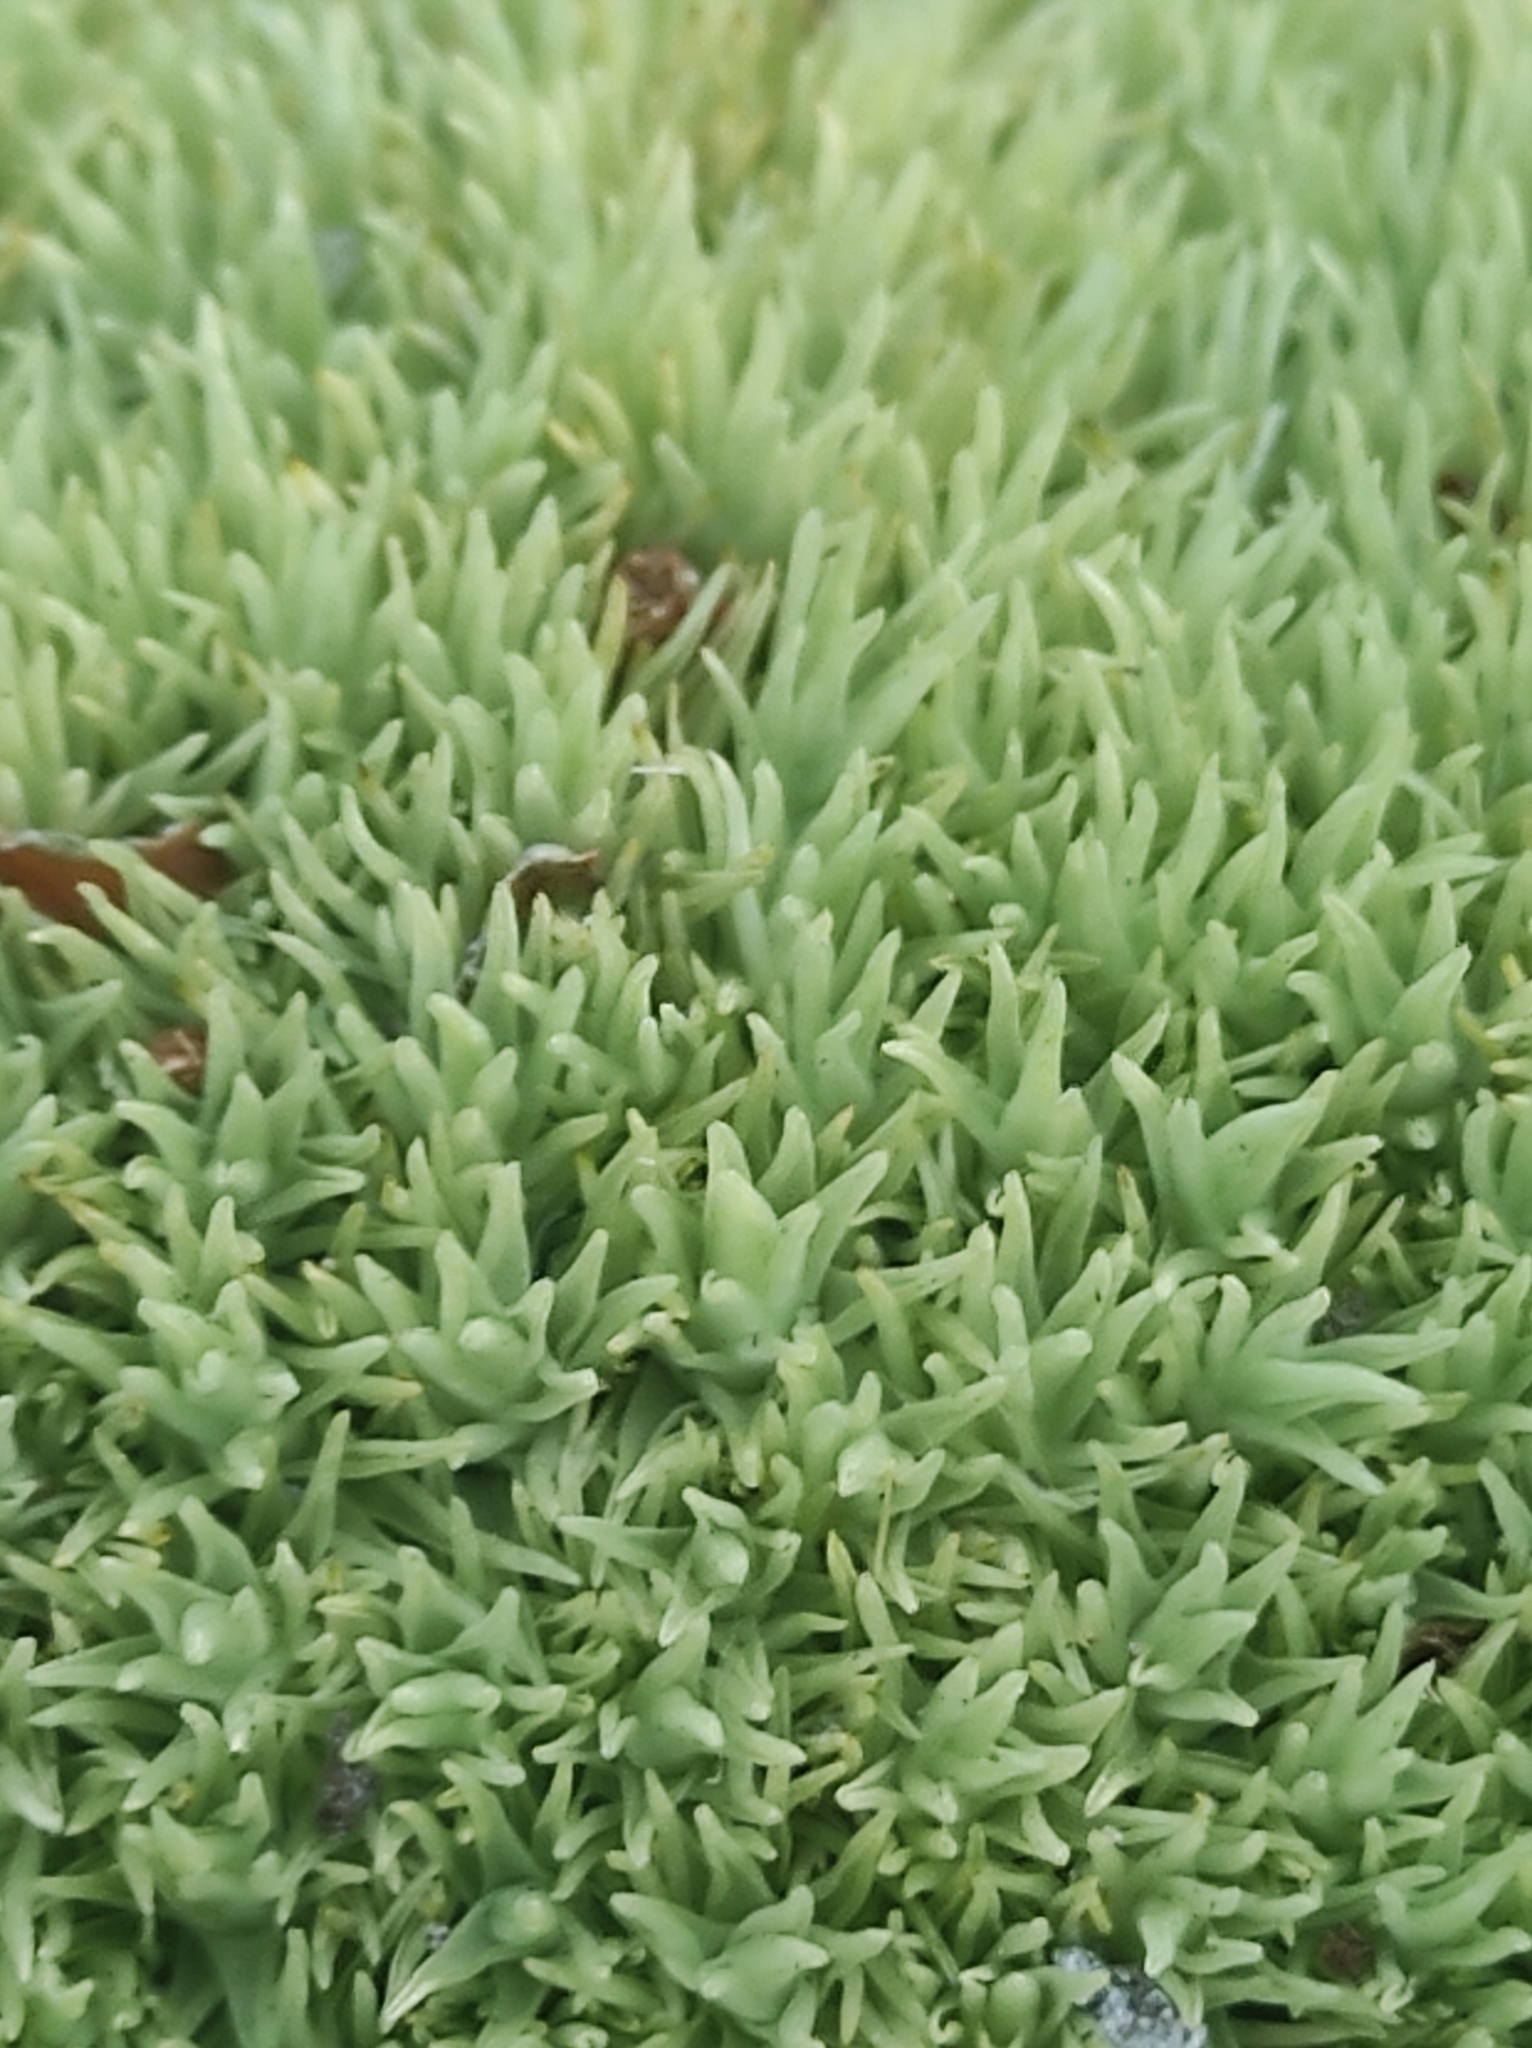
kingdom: Plantae
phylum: Bryophyta
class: Bryopsida
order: Dicranales
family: Leucobryaceae
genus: Leucobryum
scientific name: Leucobryum glaucum
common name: Large white-moss
